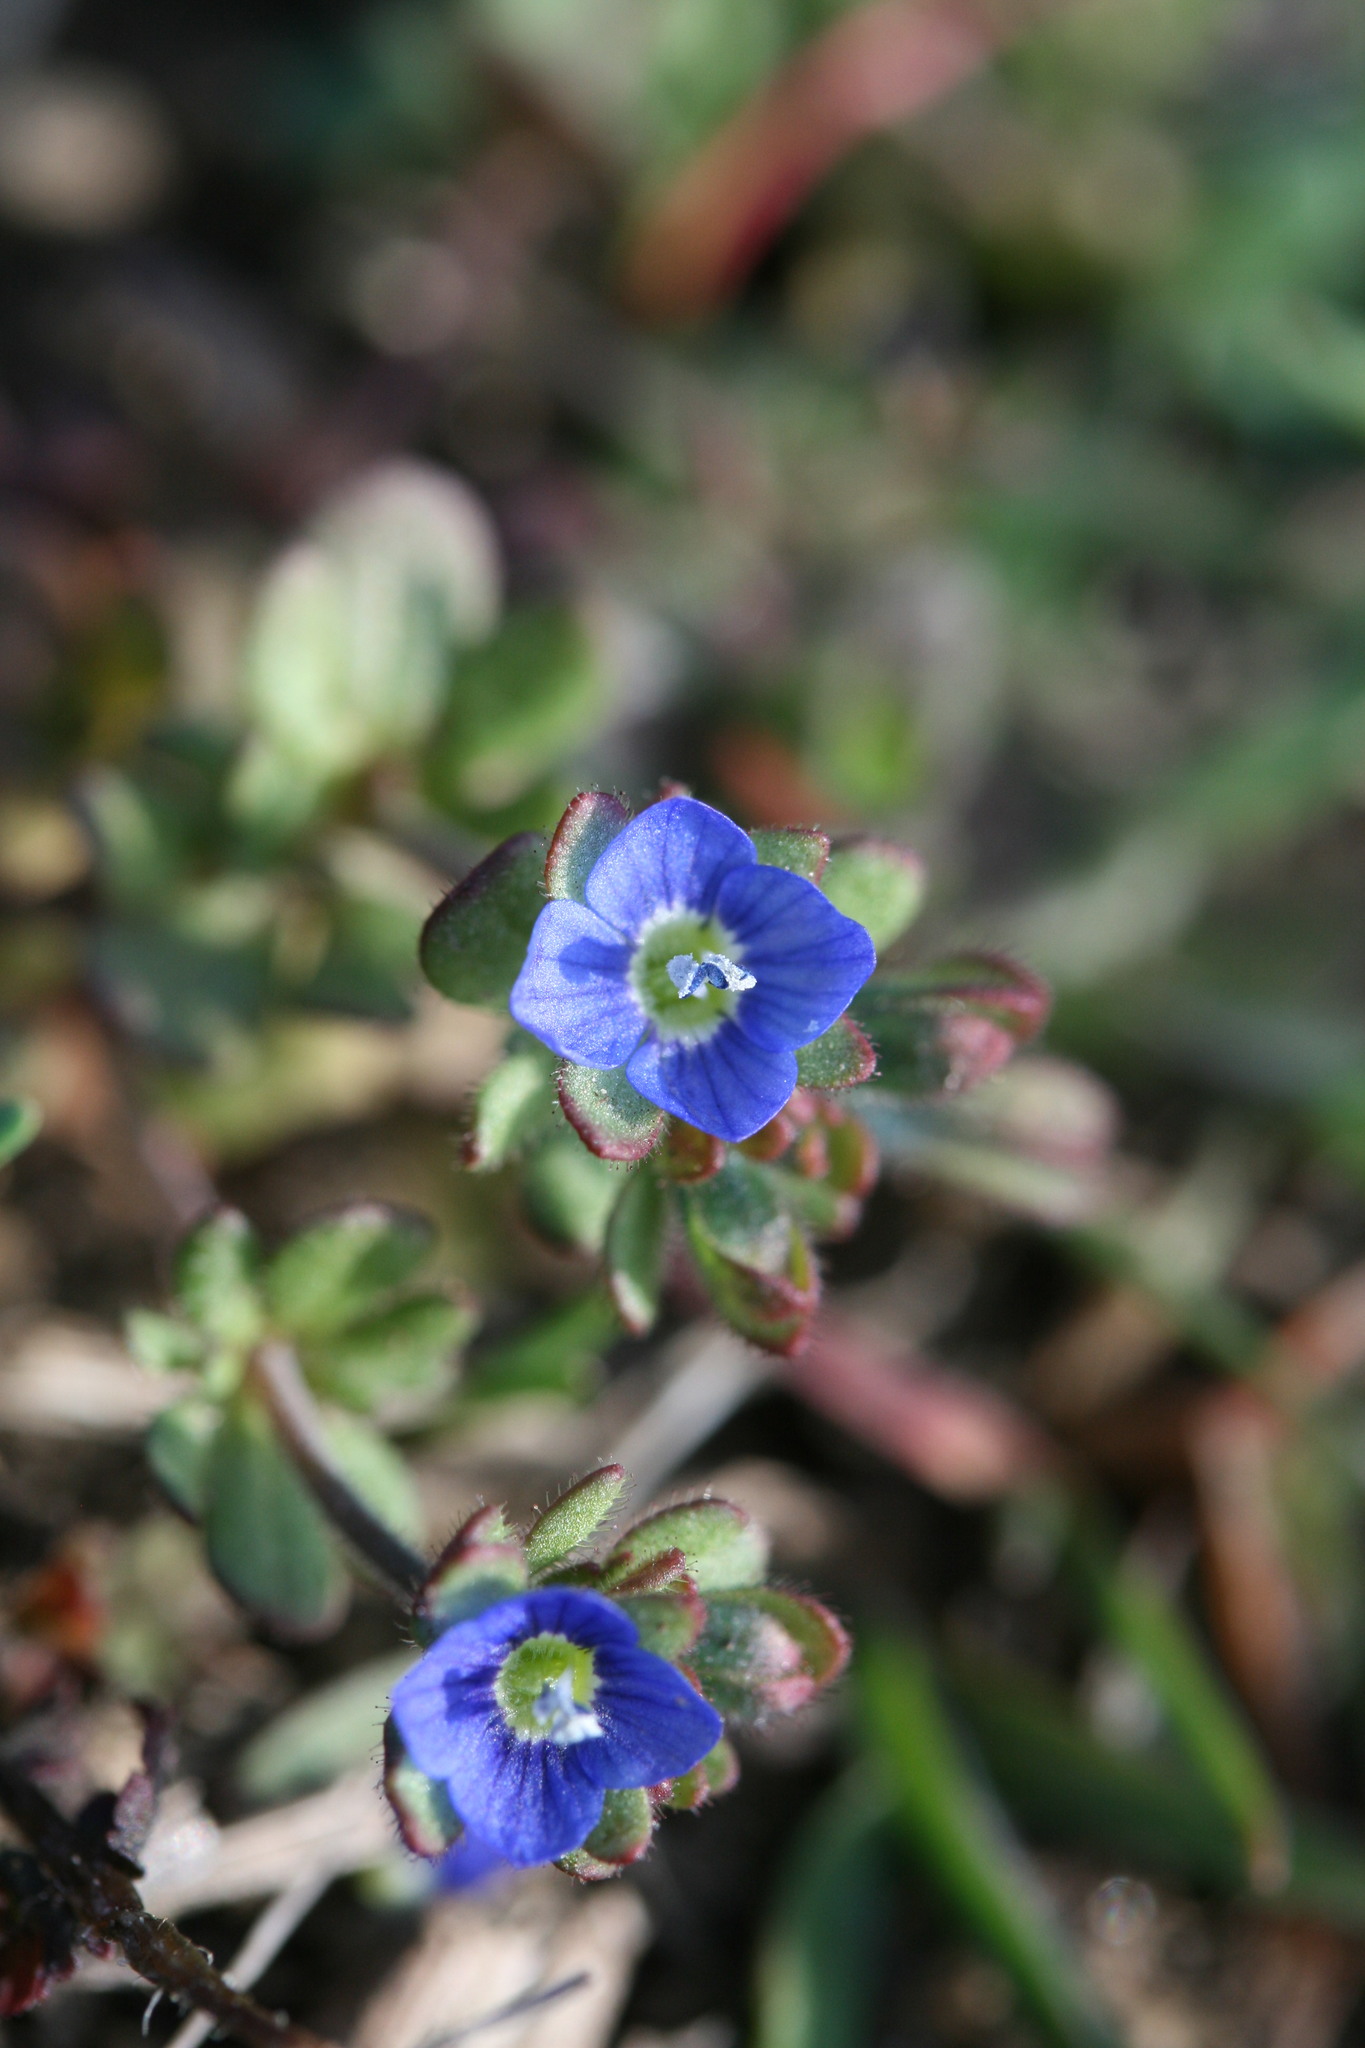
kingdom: Plantae
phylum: Tracheophyta
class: Magnoliopsida
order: Lamiales
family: Plantaginaceae
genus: Veronica
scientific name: Veronica triphyllos
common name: Fingered speedwell
